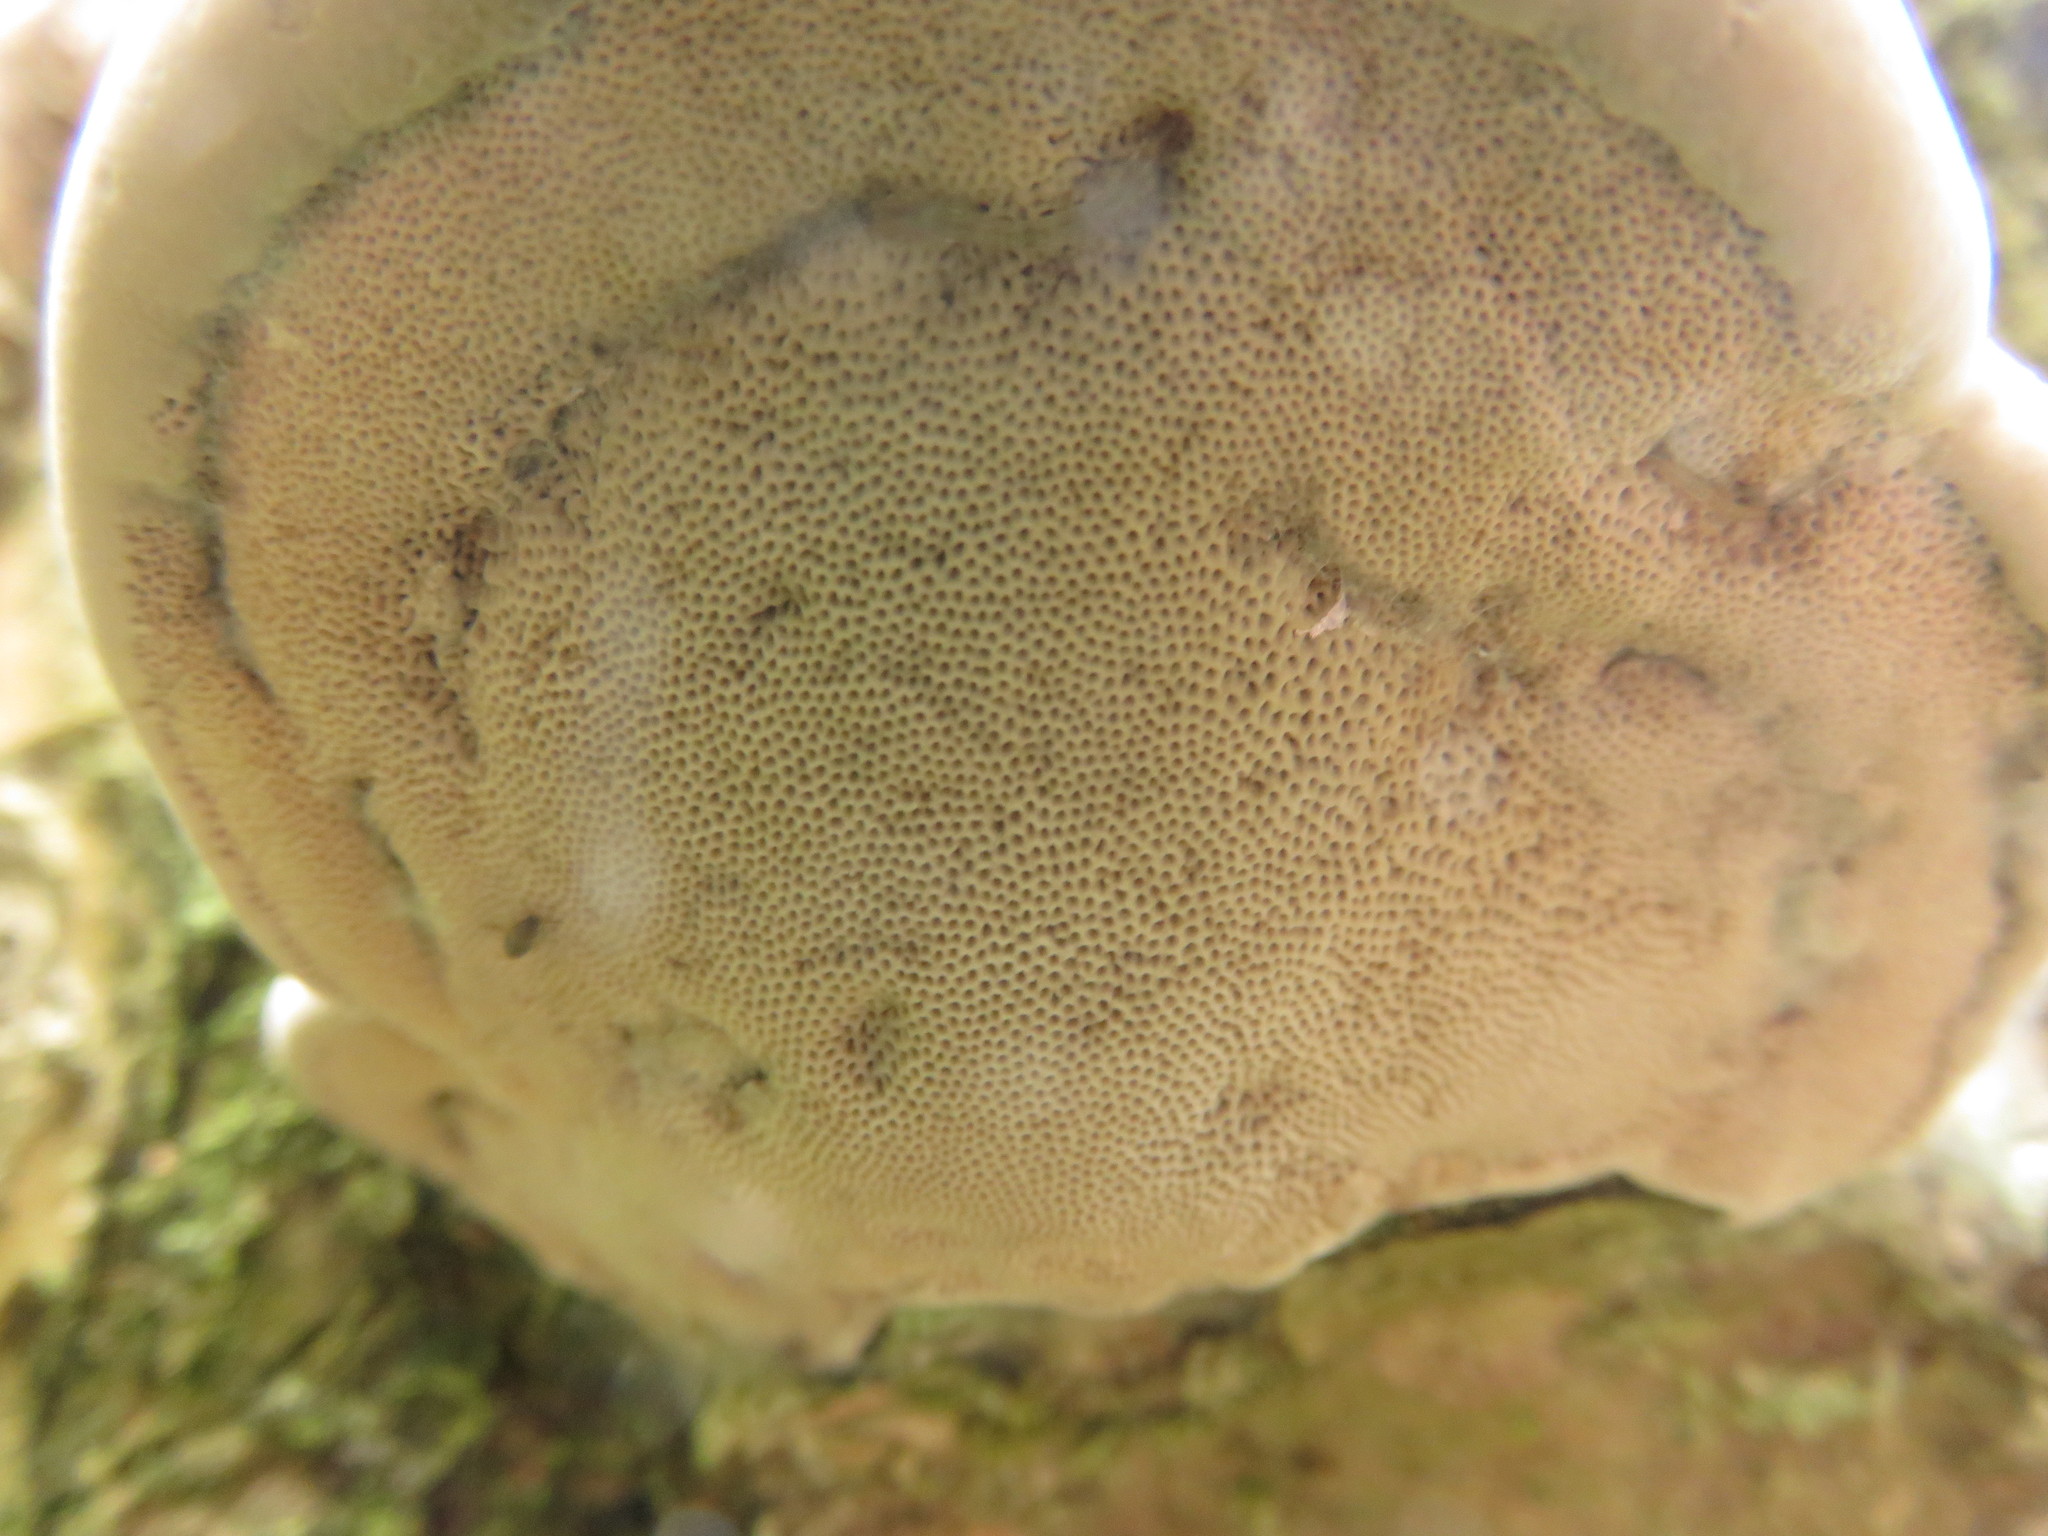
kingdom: Fungi
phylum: Basidiomycota
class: Agaricomycetes
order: Polyporales
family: Fomitopsidaceae
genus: Fomitopsis
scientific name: Fomitopsis betulina
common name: Birch polypore
